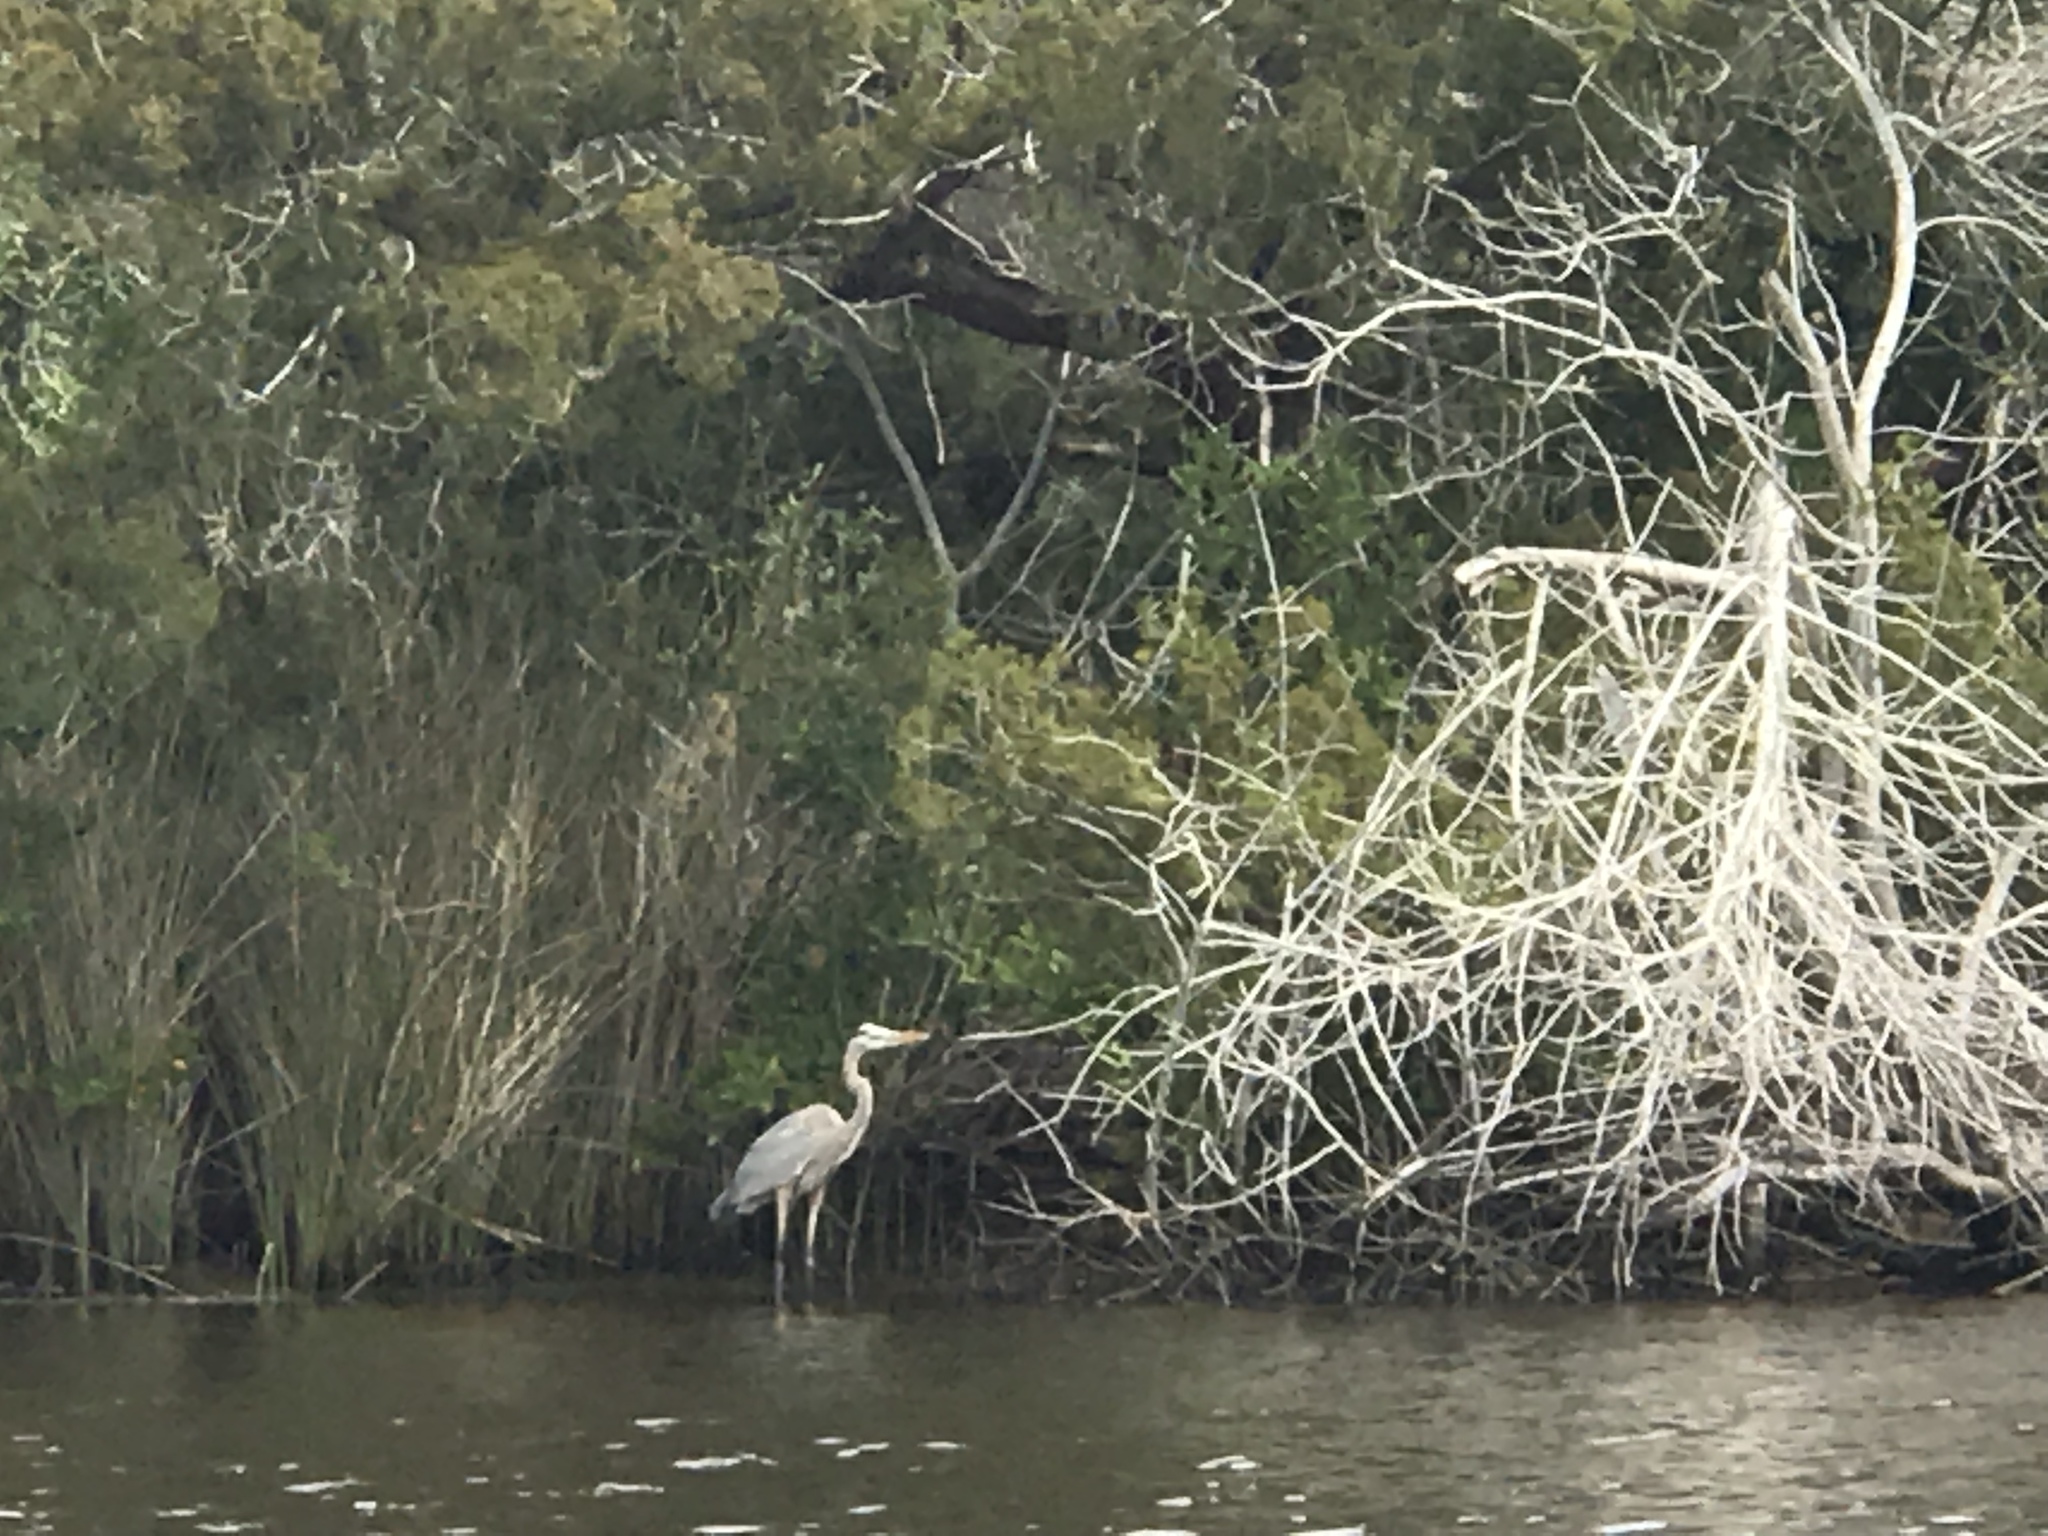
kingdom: Animalia
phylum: Chordata
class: Aves
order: Pelecaniformes
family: Ardeidae
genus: Ardea
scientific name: Ardea herodias
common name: Great blue heron
